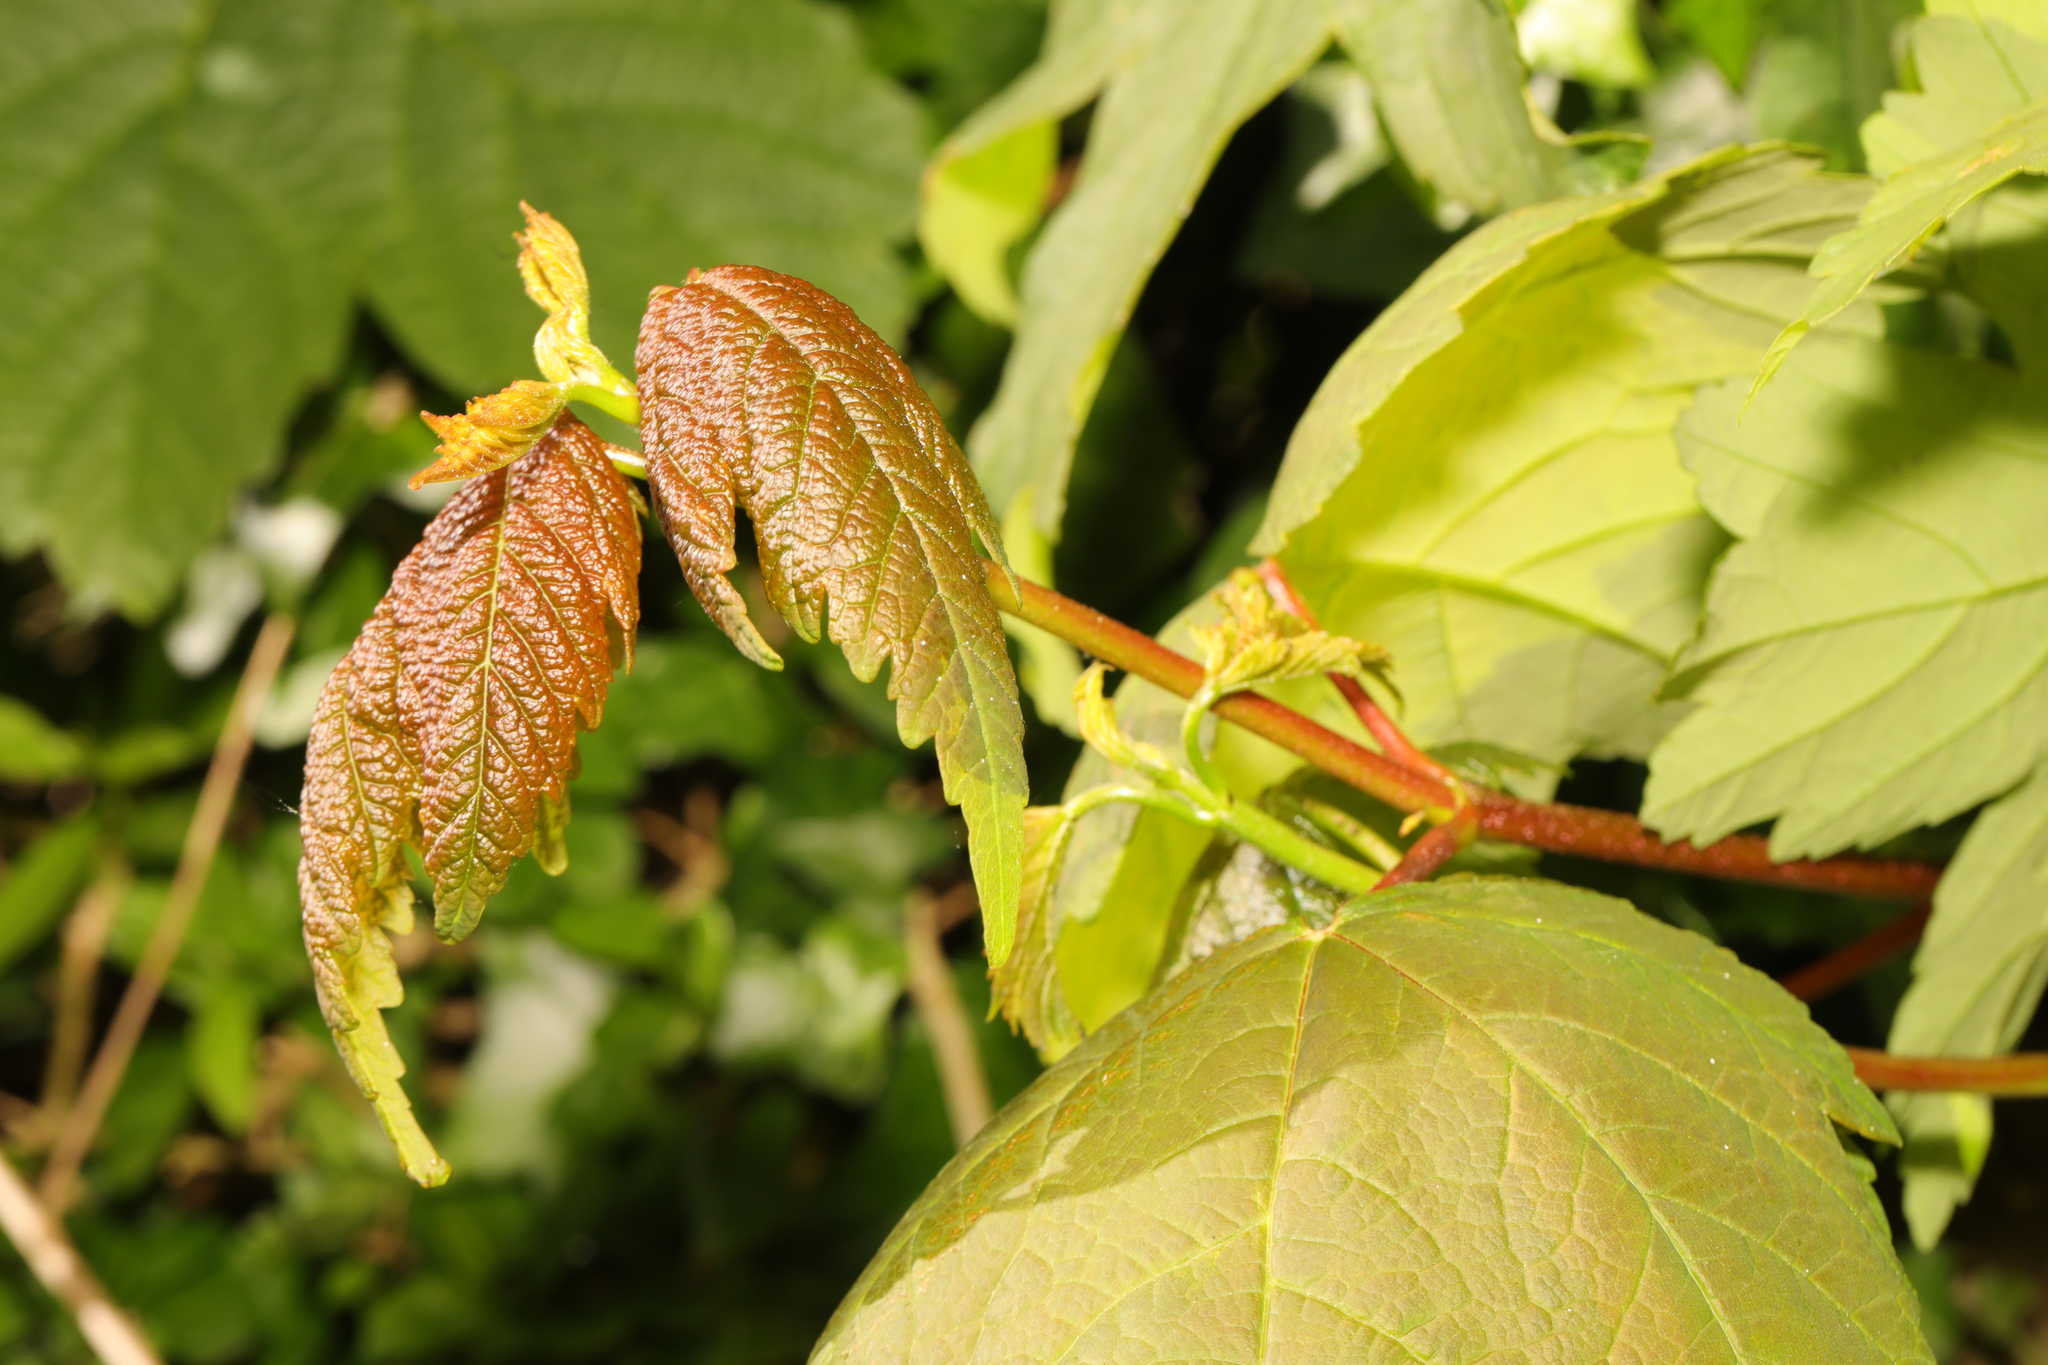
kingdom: Plantae
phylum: Tracheophyta
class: Magnoliopsida
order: Sapindales
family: Sapindaceae
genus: Acer
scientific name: Acer pseudoplatanus
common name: Sycamore
